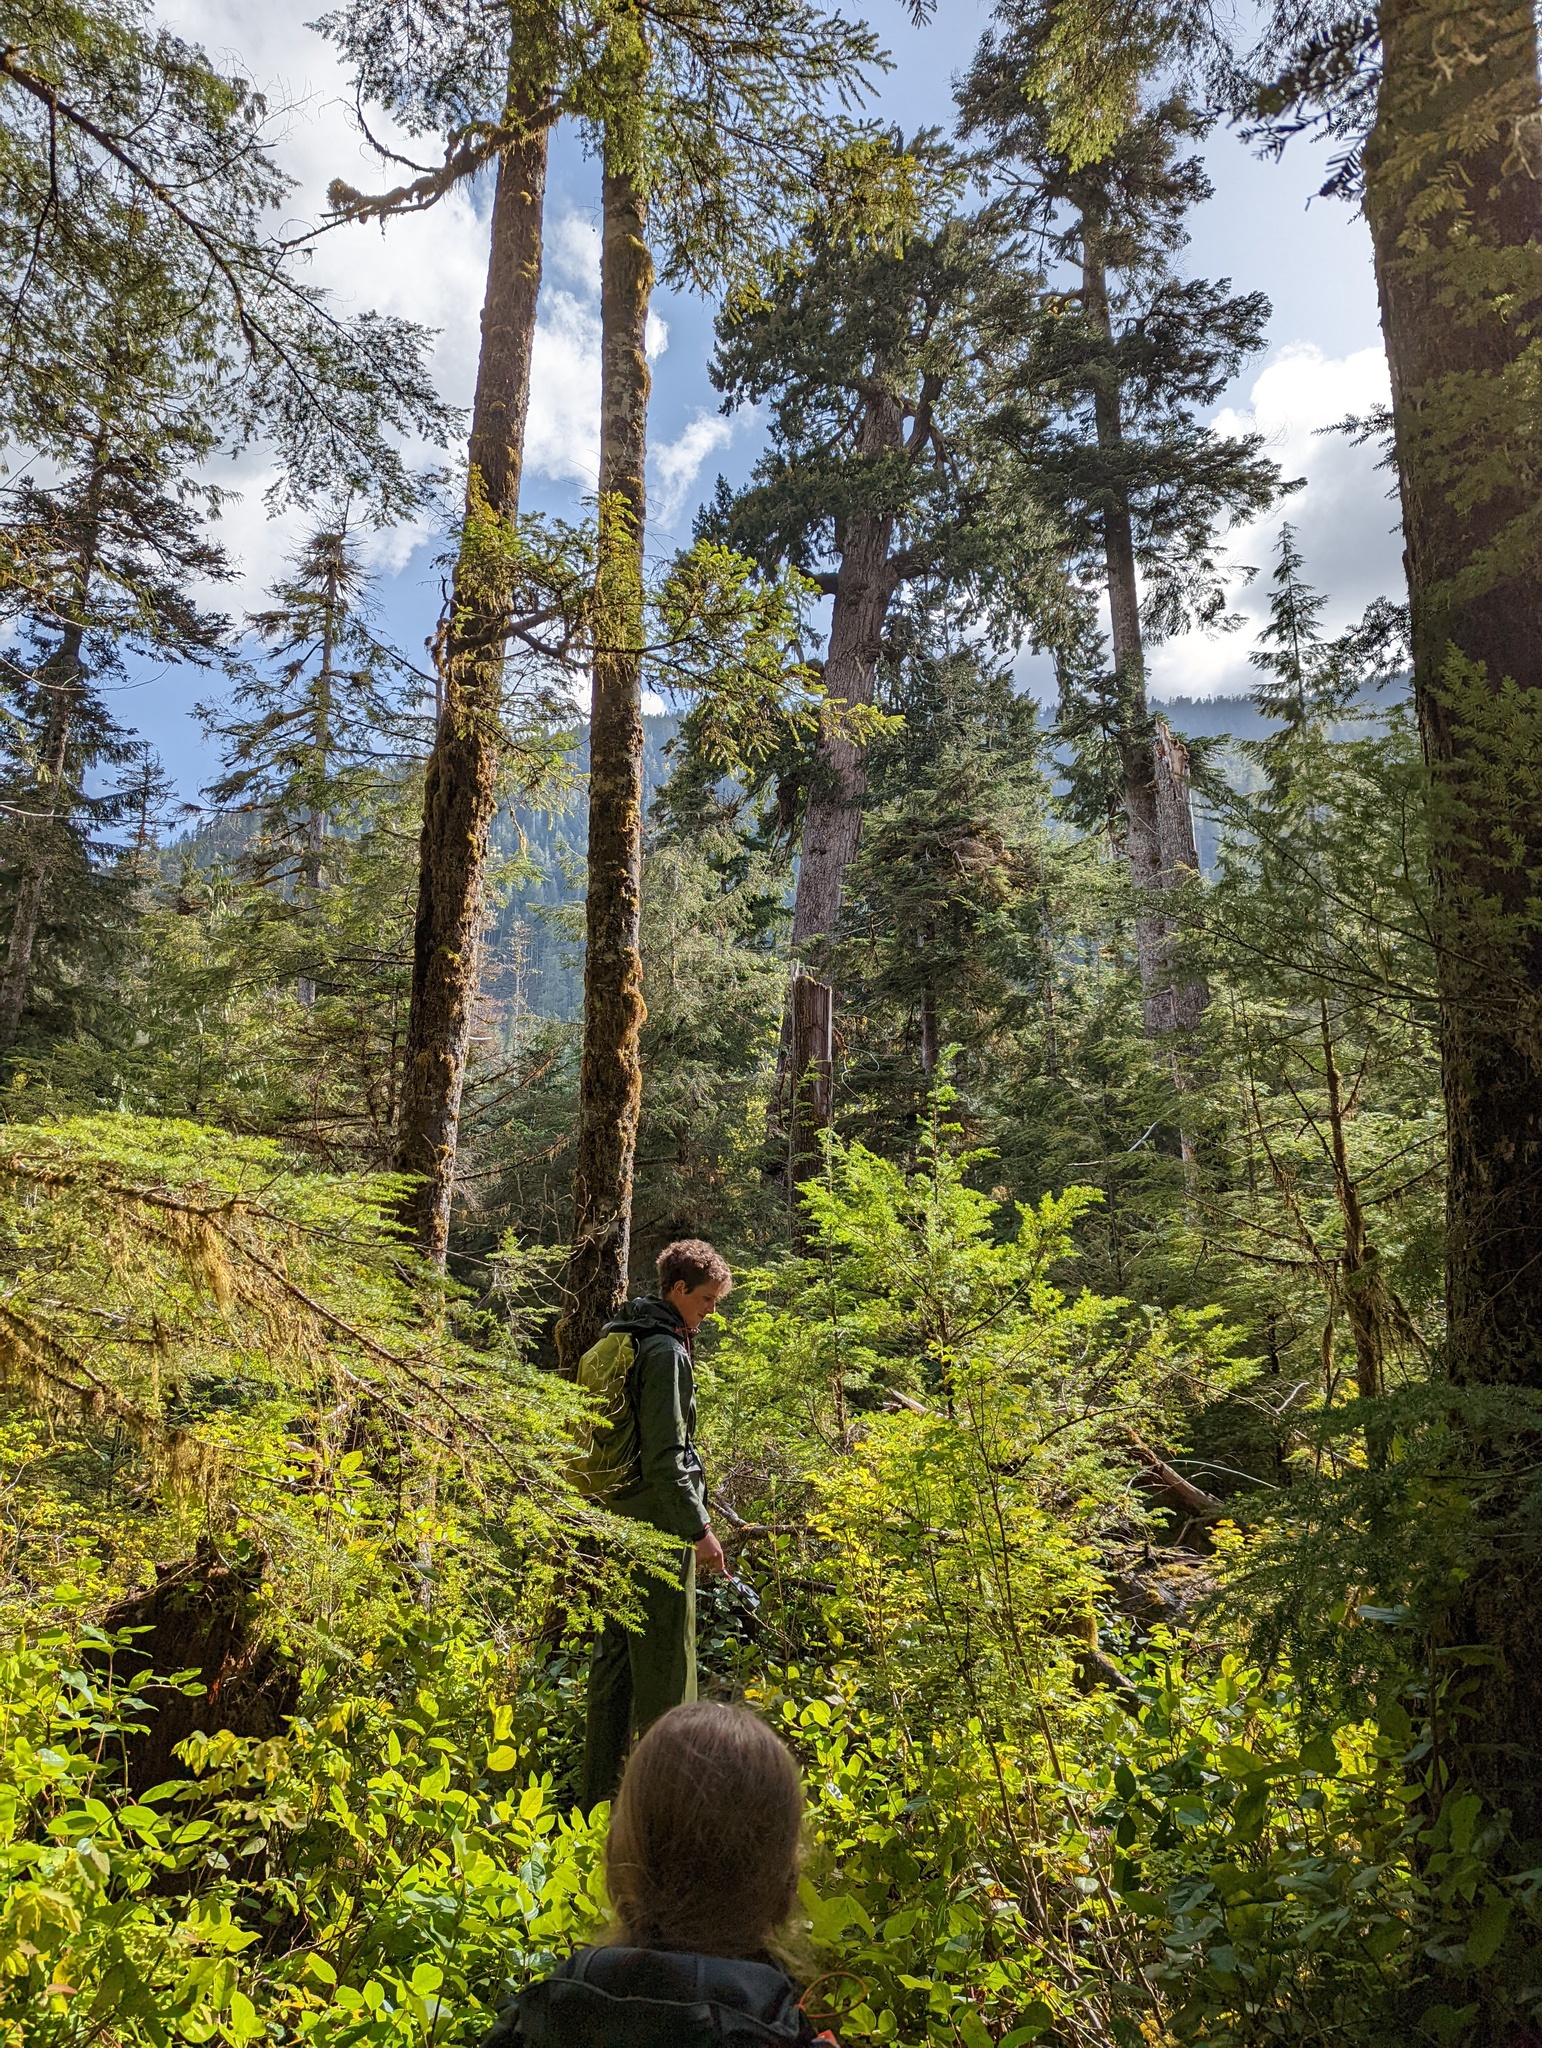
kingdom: Plantae
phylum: Tracheophyta
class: Pinopsida
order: Pinales
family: Pinaceae
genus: Pseudotsuga
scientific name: Pseudotsuga menziesii
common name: Douglas fir
